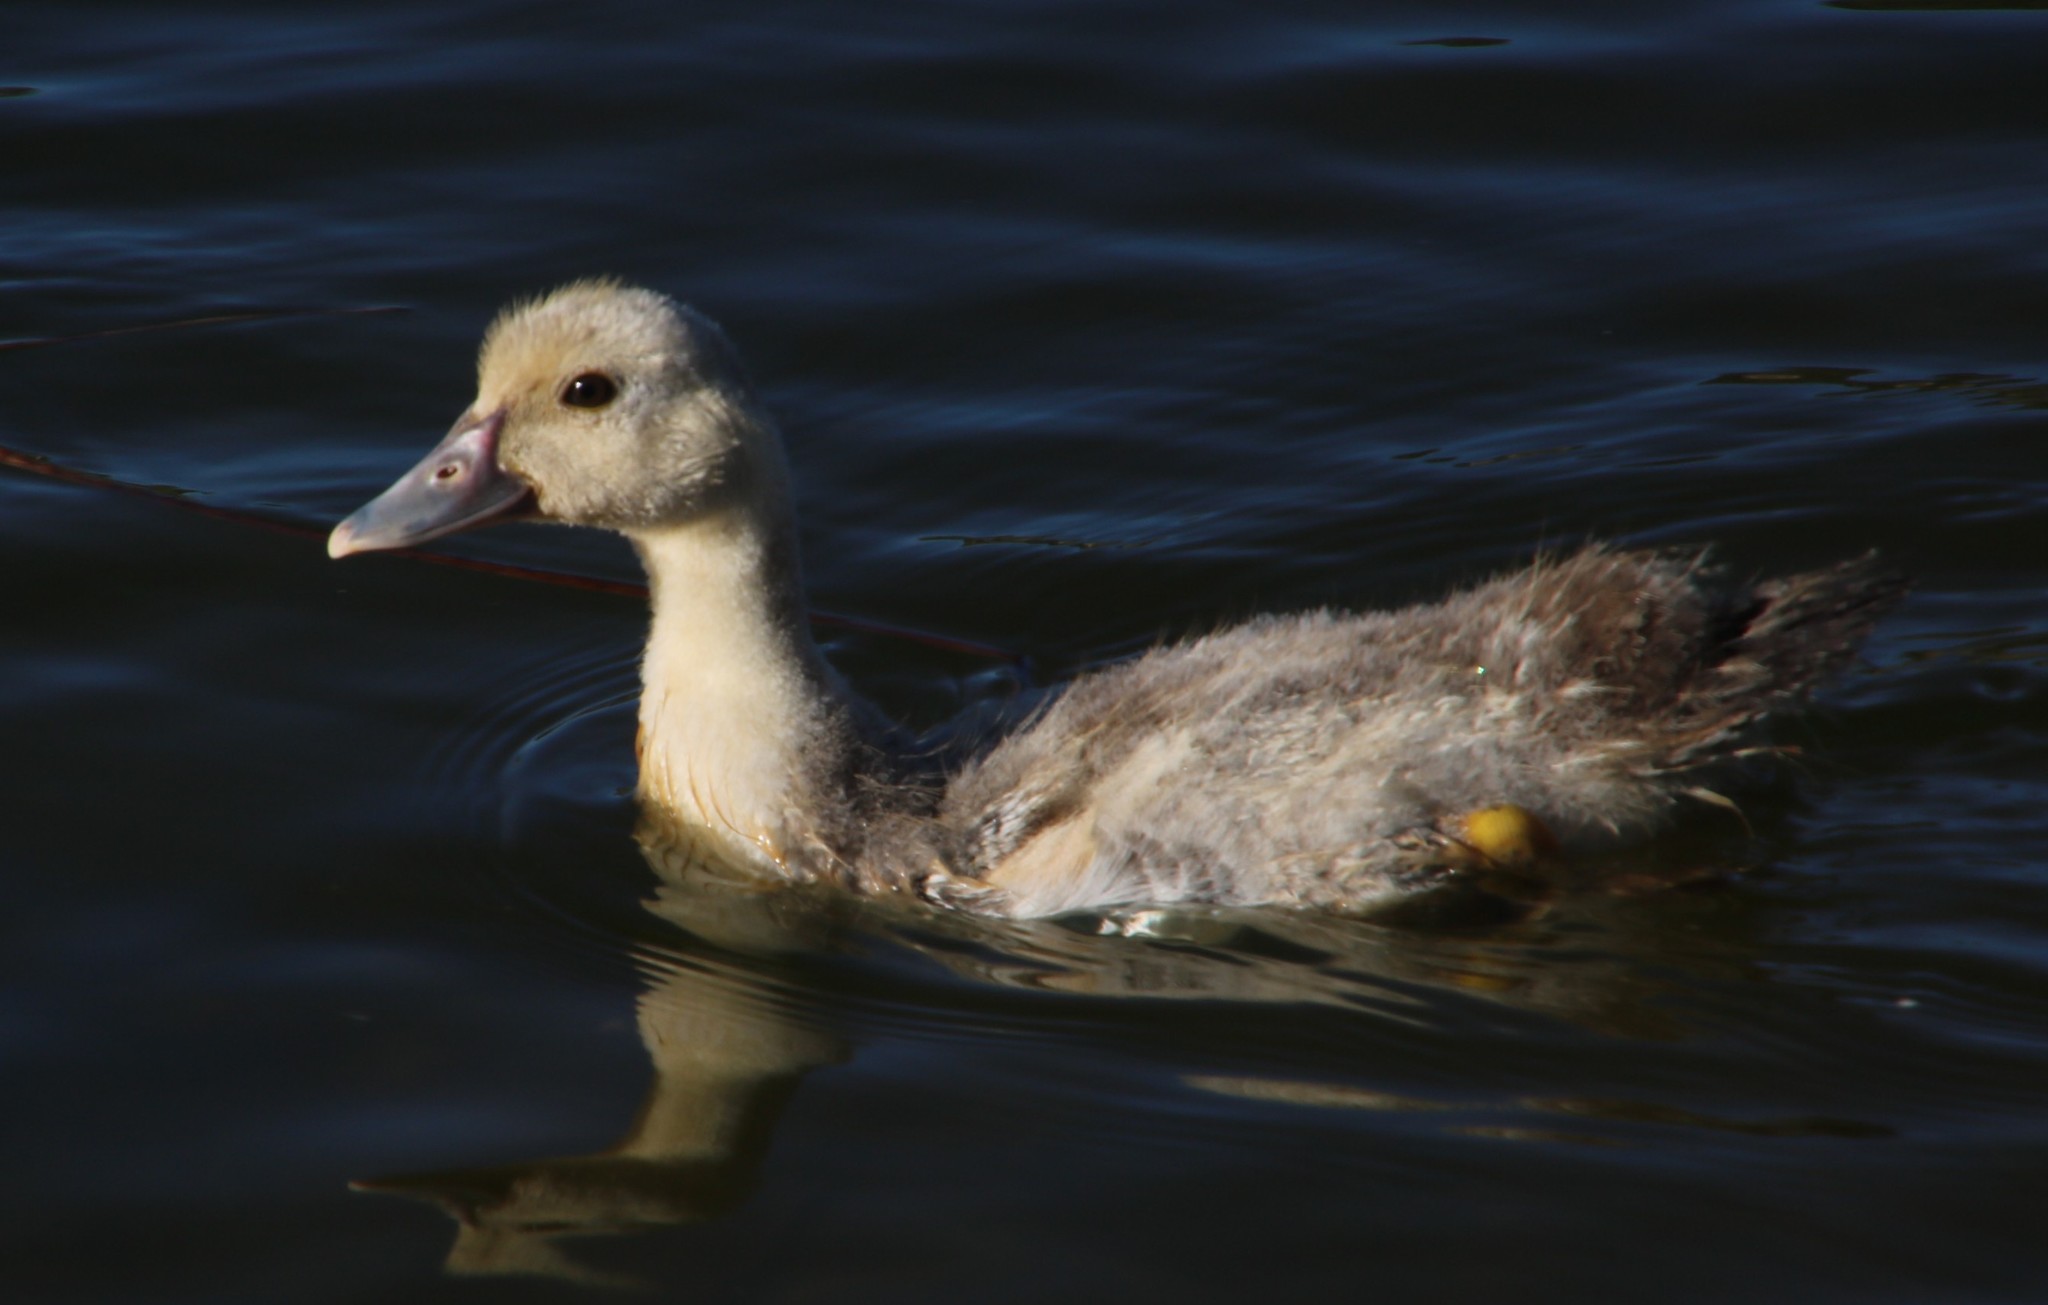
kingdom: Animalia
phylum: Chordata
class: Aves
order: Anseriformes
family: Anatidae
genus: Cairina
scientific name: Cairina moschata
